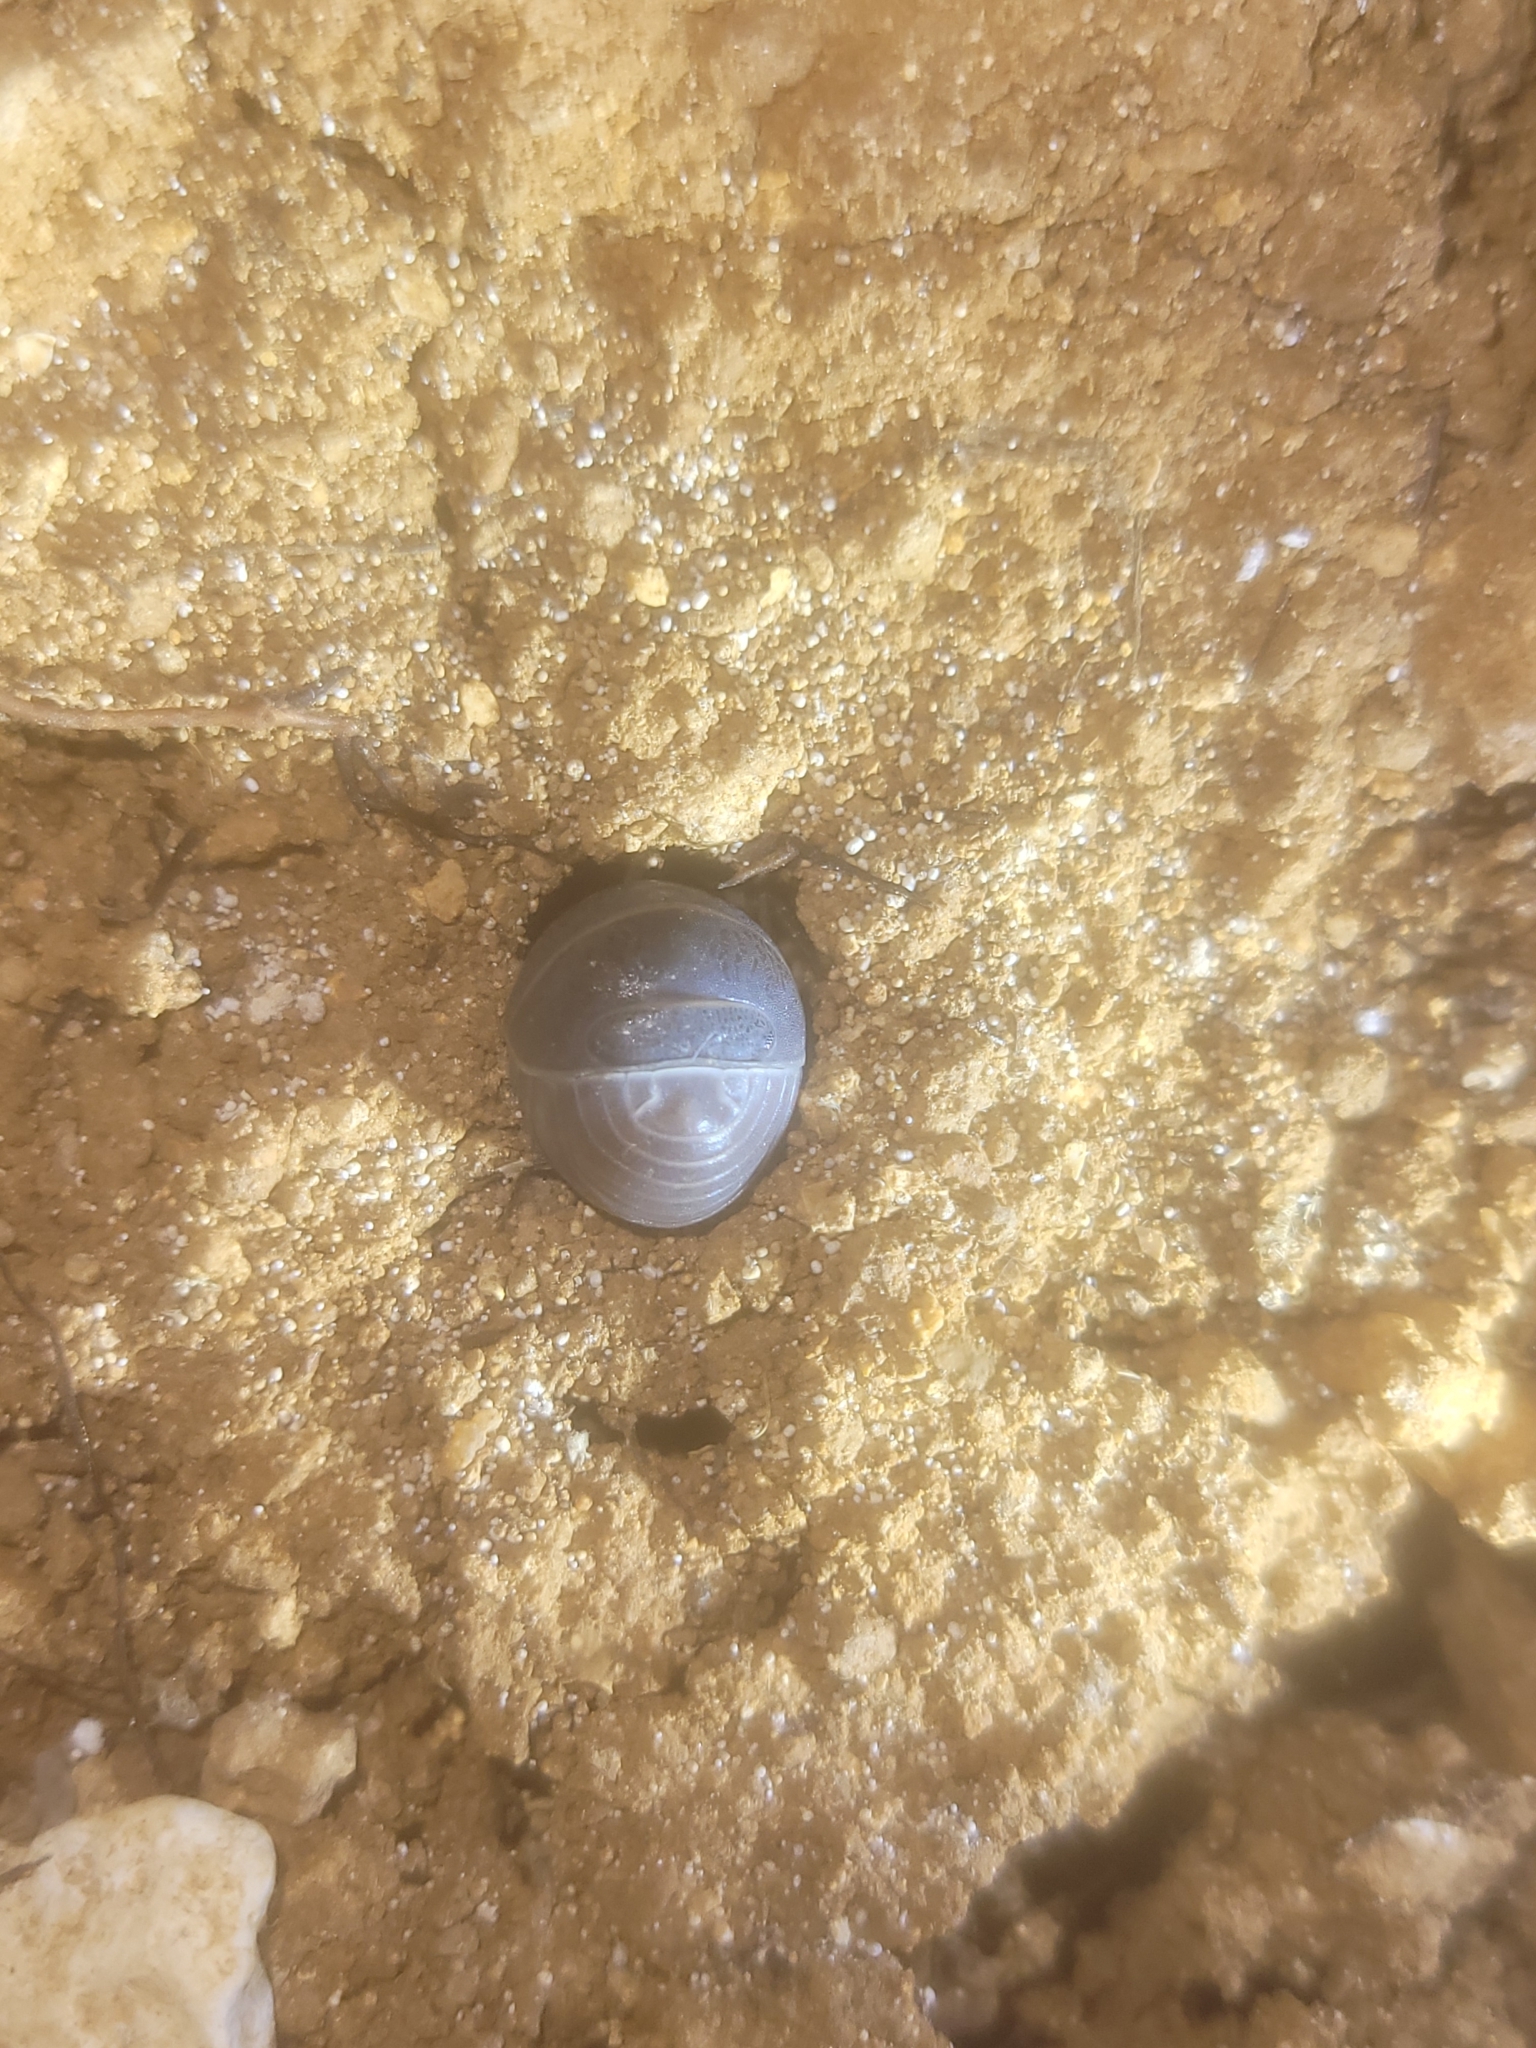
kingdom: Animalia
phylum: Arthropoda
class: Malacostraca
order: Isopoda
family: Armadillidae
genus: Armadillo
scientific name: Armadillo officinalis
